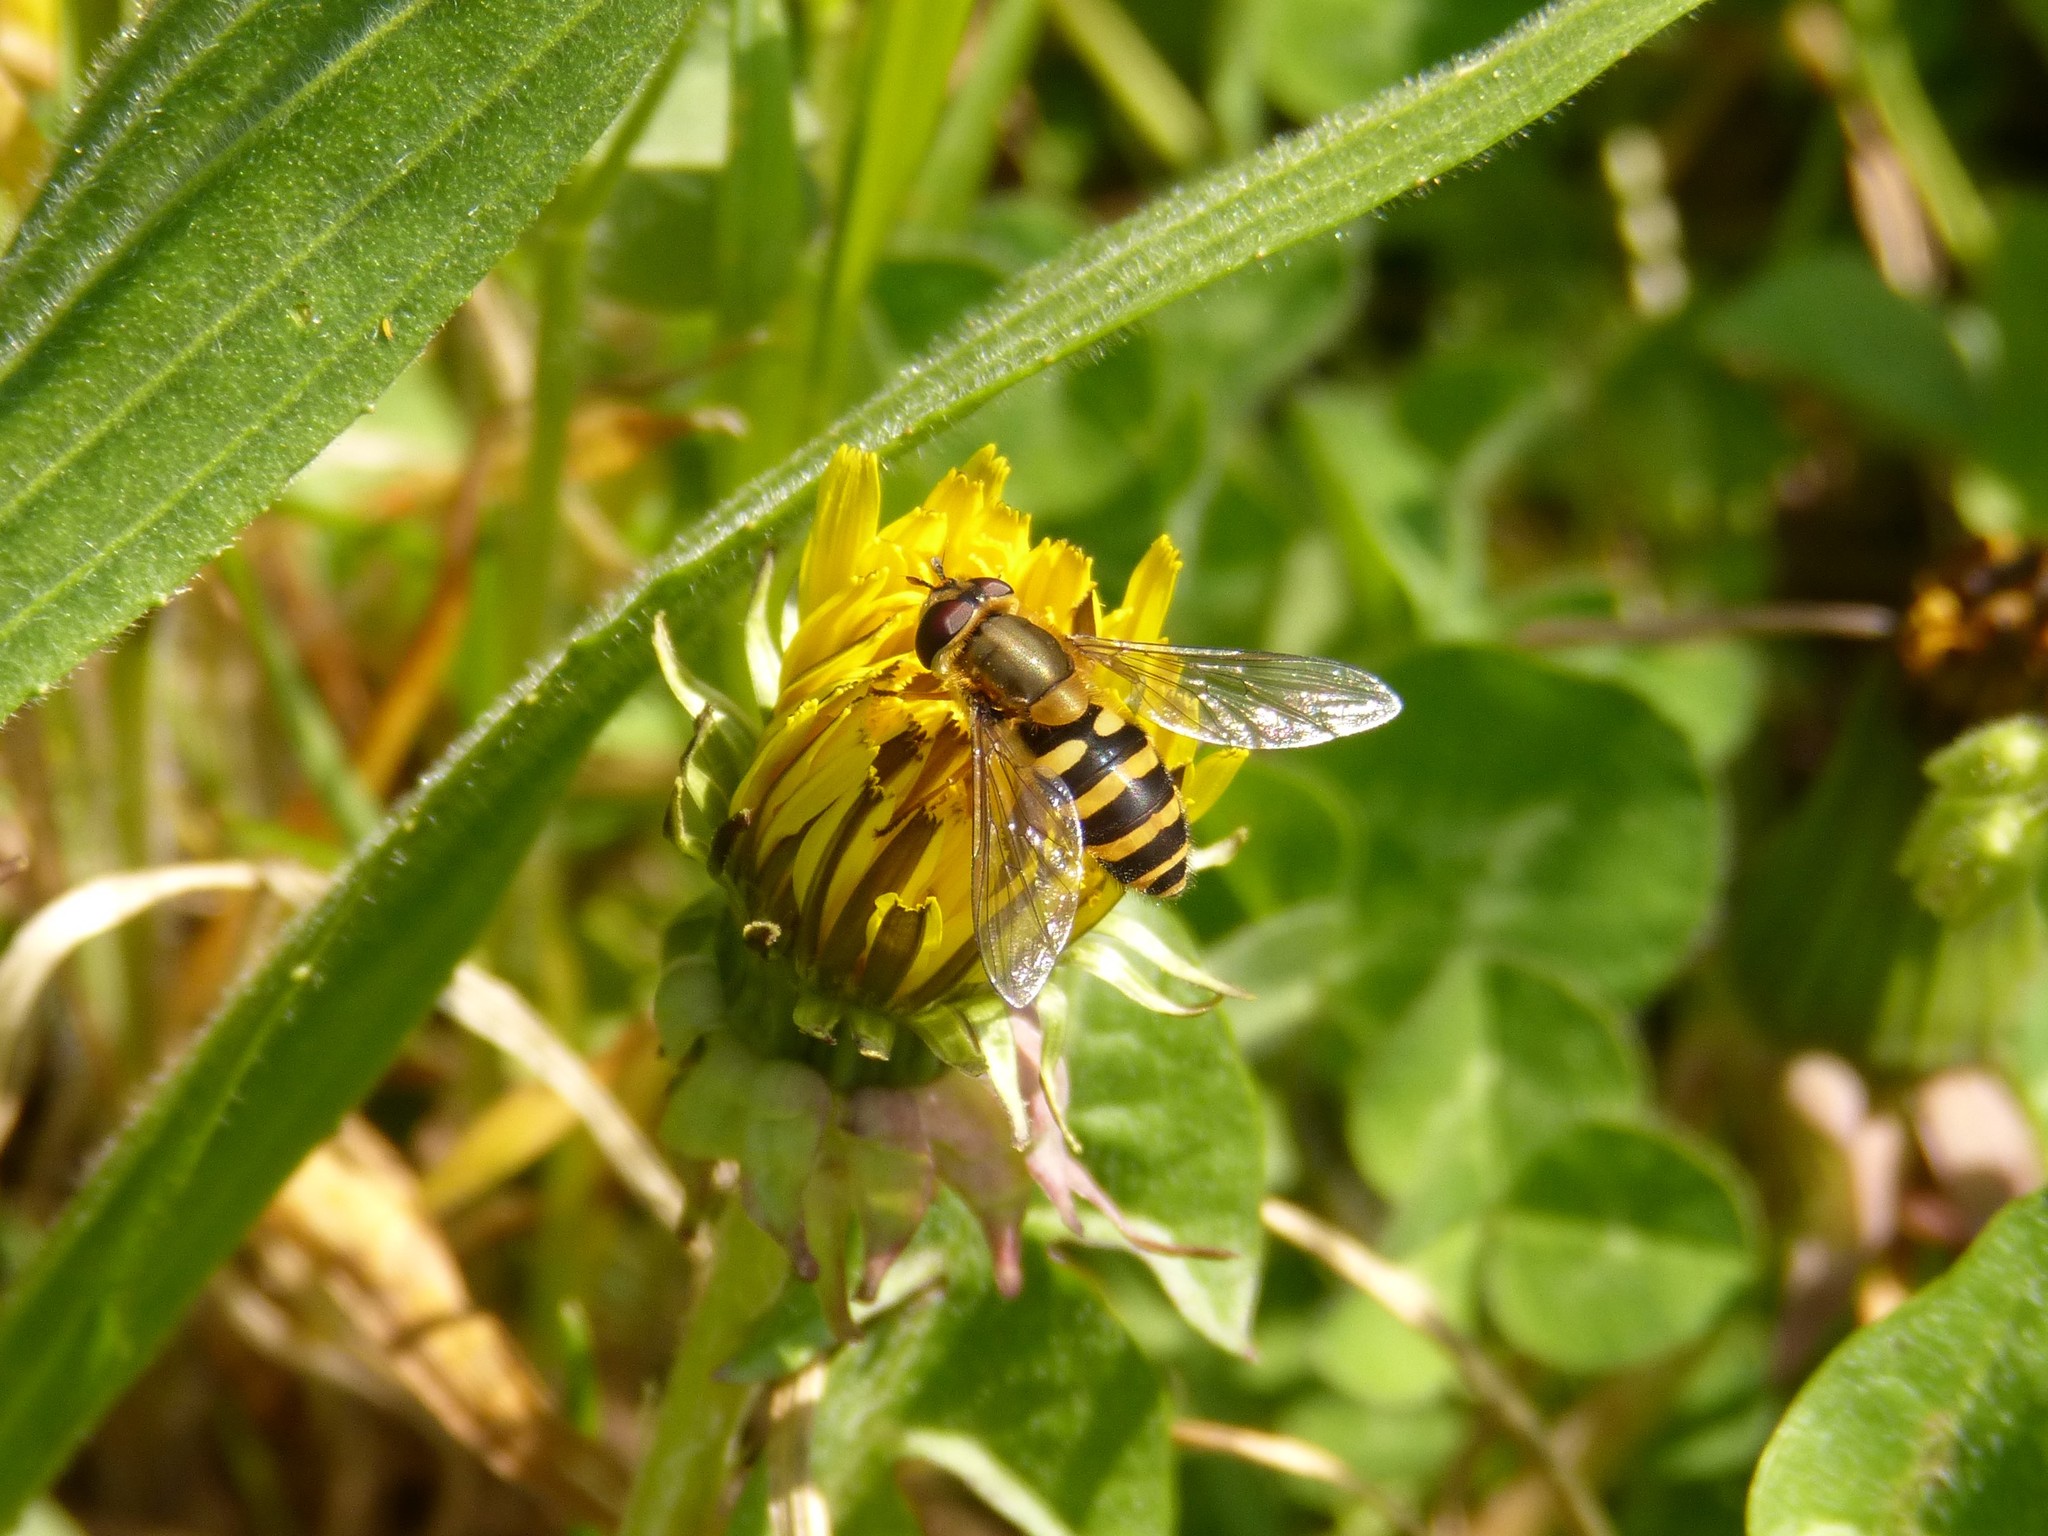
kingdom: Animalia
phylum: Arthropoda
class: Insecta
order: Diptera
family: Syrphidae
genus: Syrphus
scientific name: Syrphus
